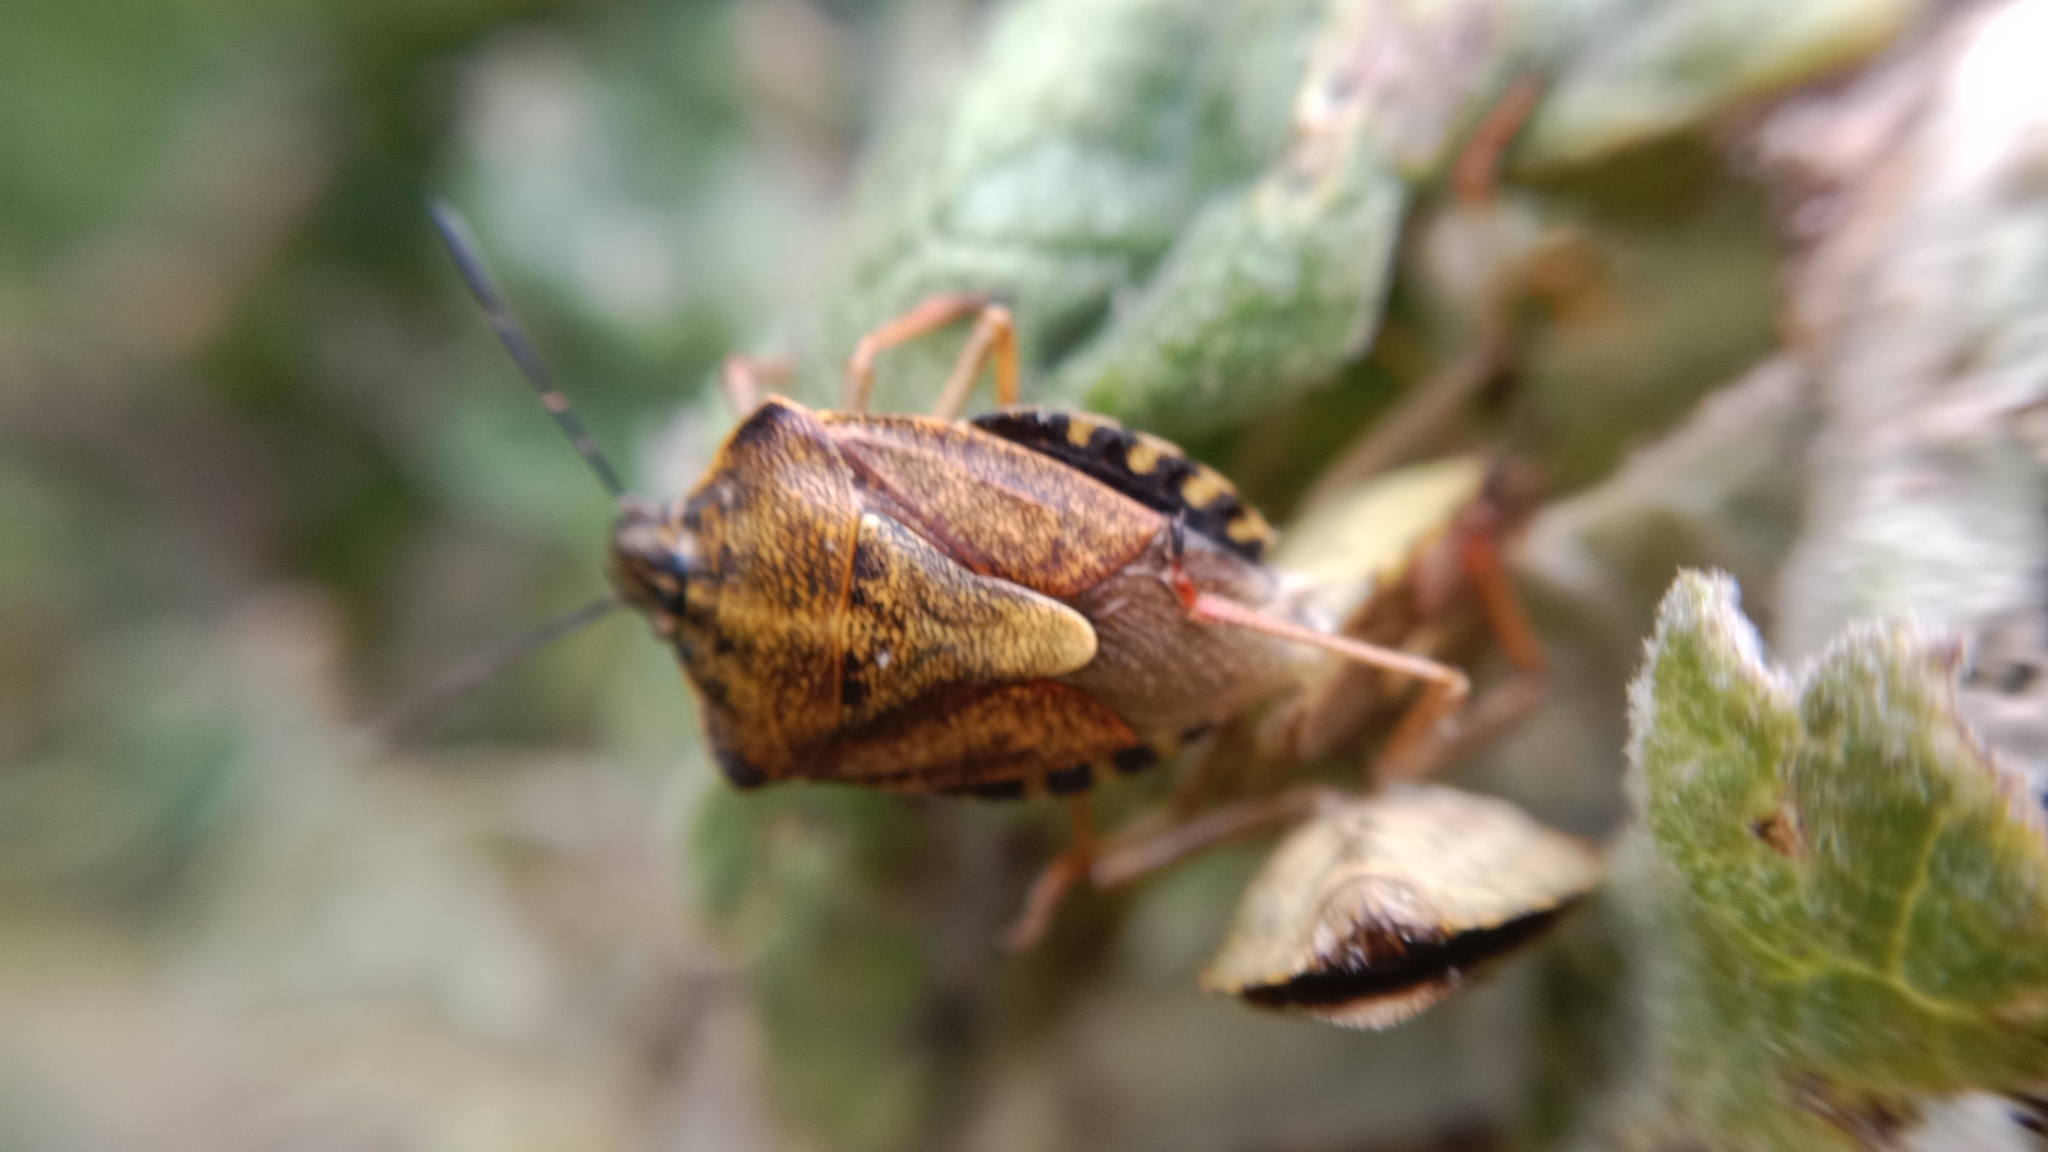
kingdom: Animalia
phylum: Arthropoda
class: Insecta
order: Hemiptera
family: Pentatomidae
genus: Carpocoris
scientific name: Carpocoris purpureipennis
